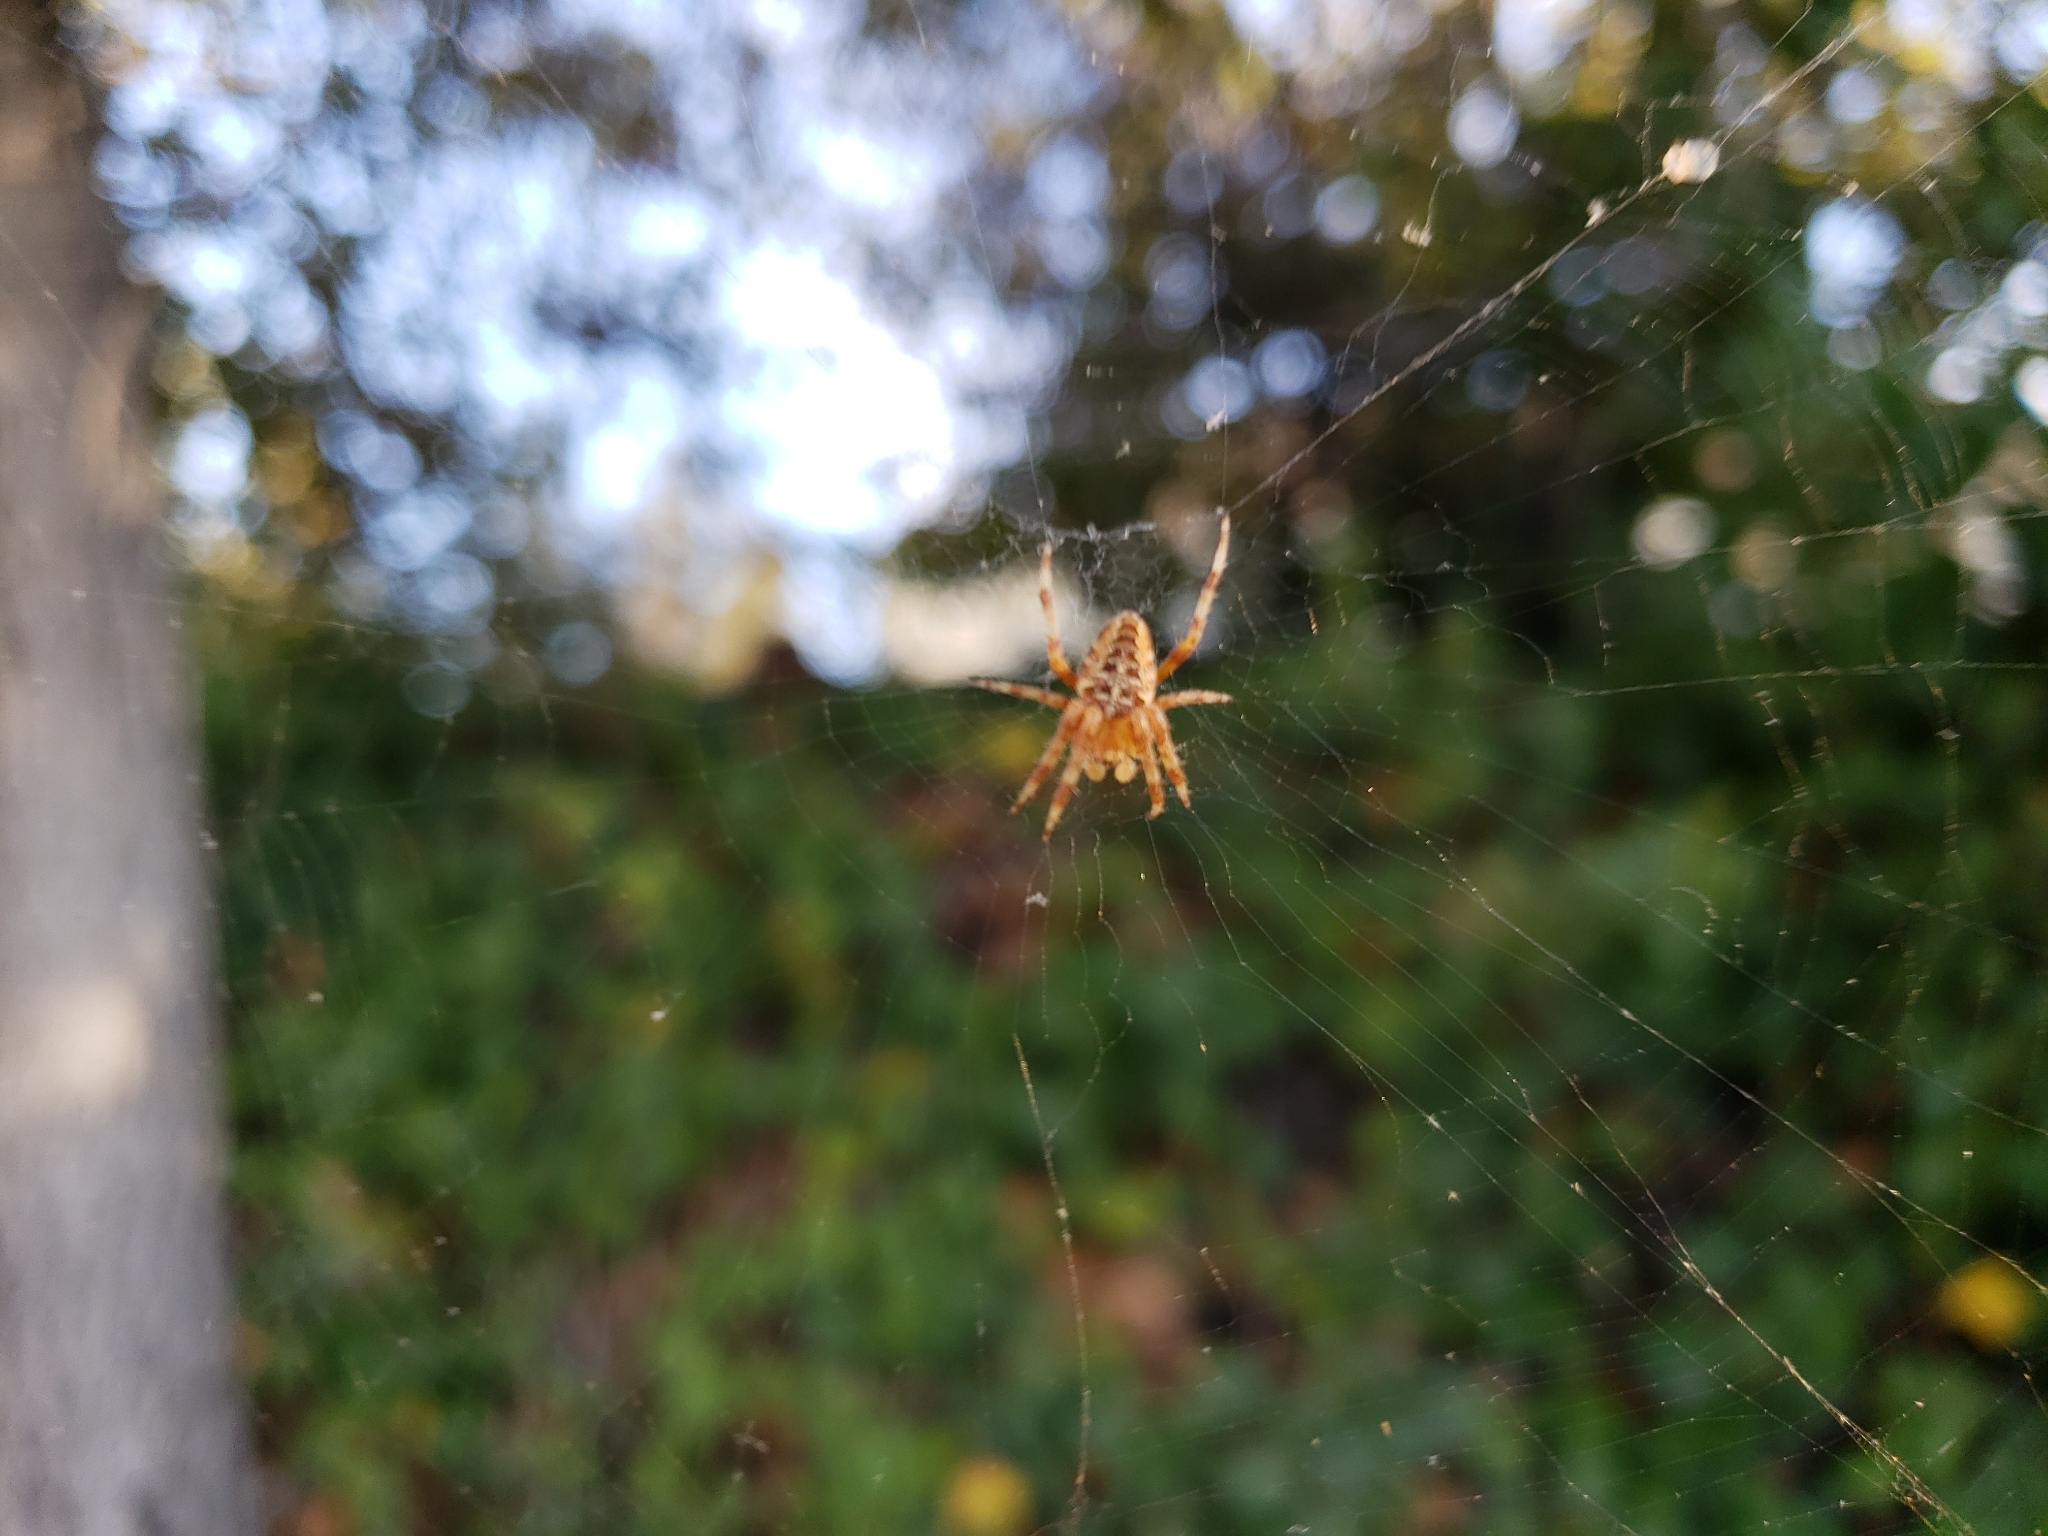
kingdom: Animalia
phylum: Arthropoda
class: Arachnida
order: Araneae
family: Araneidae
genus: Araneus
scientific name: Araneus diadematus
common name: Cross orbweaver
